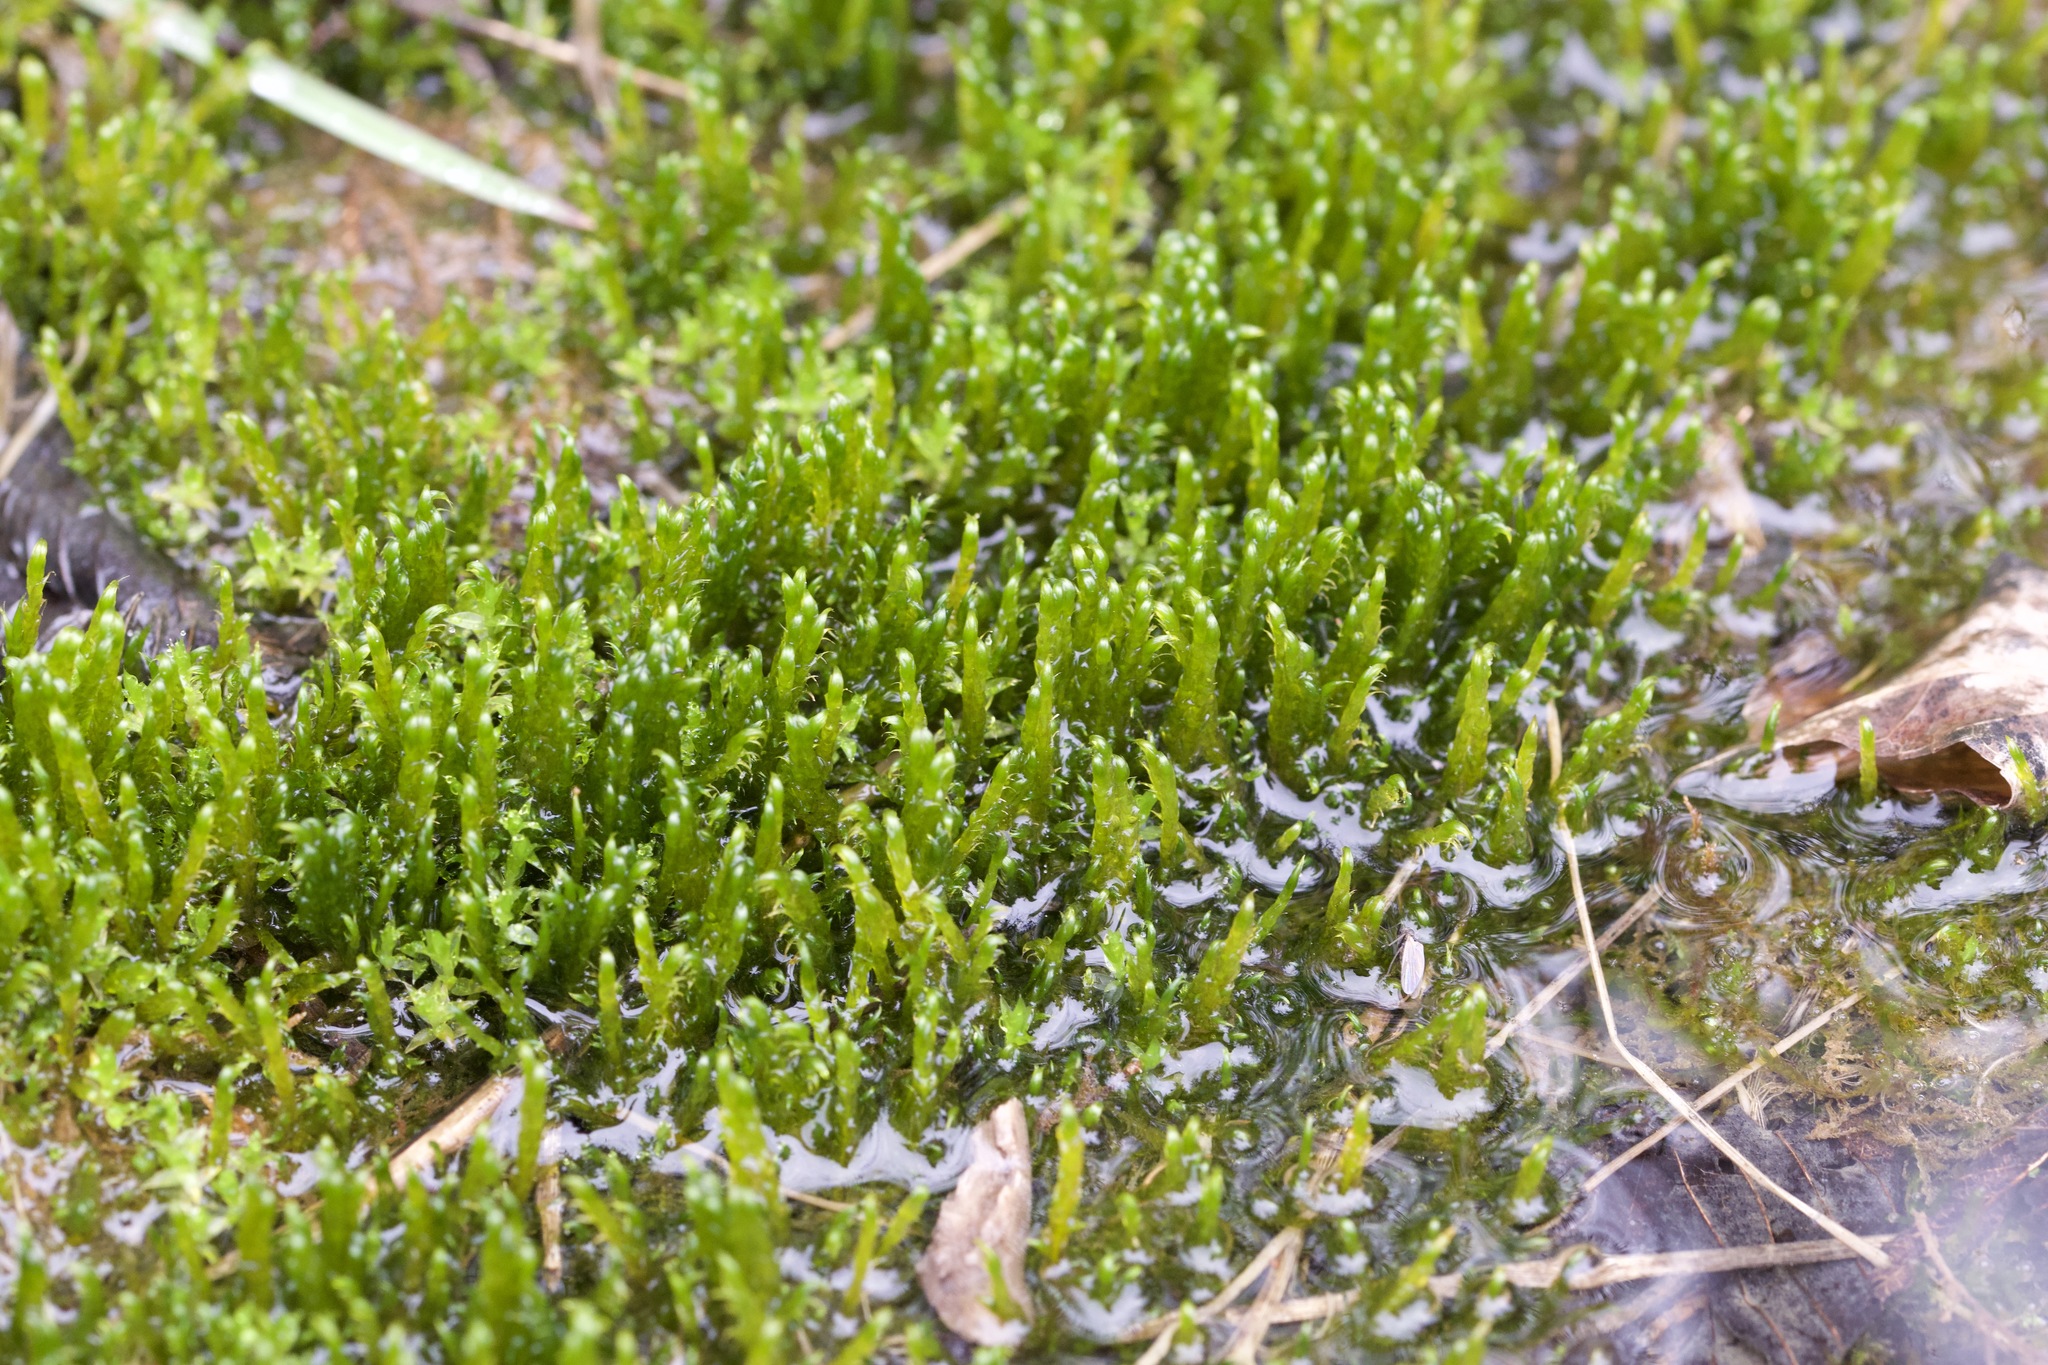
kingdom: Plantae
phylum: Bryophyta
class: Bryopsida
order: Hypnales
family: Amblystegiaceae
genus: Drepanocladus
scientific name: Drepanocladus aduncus
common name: Knieff's hook moss
